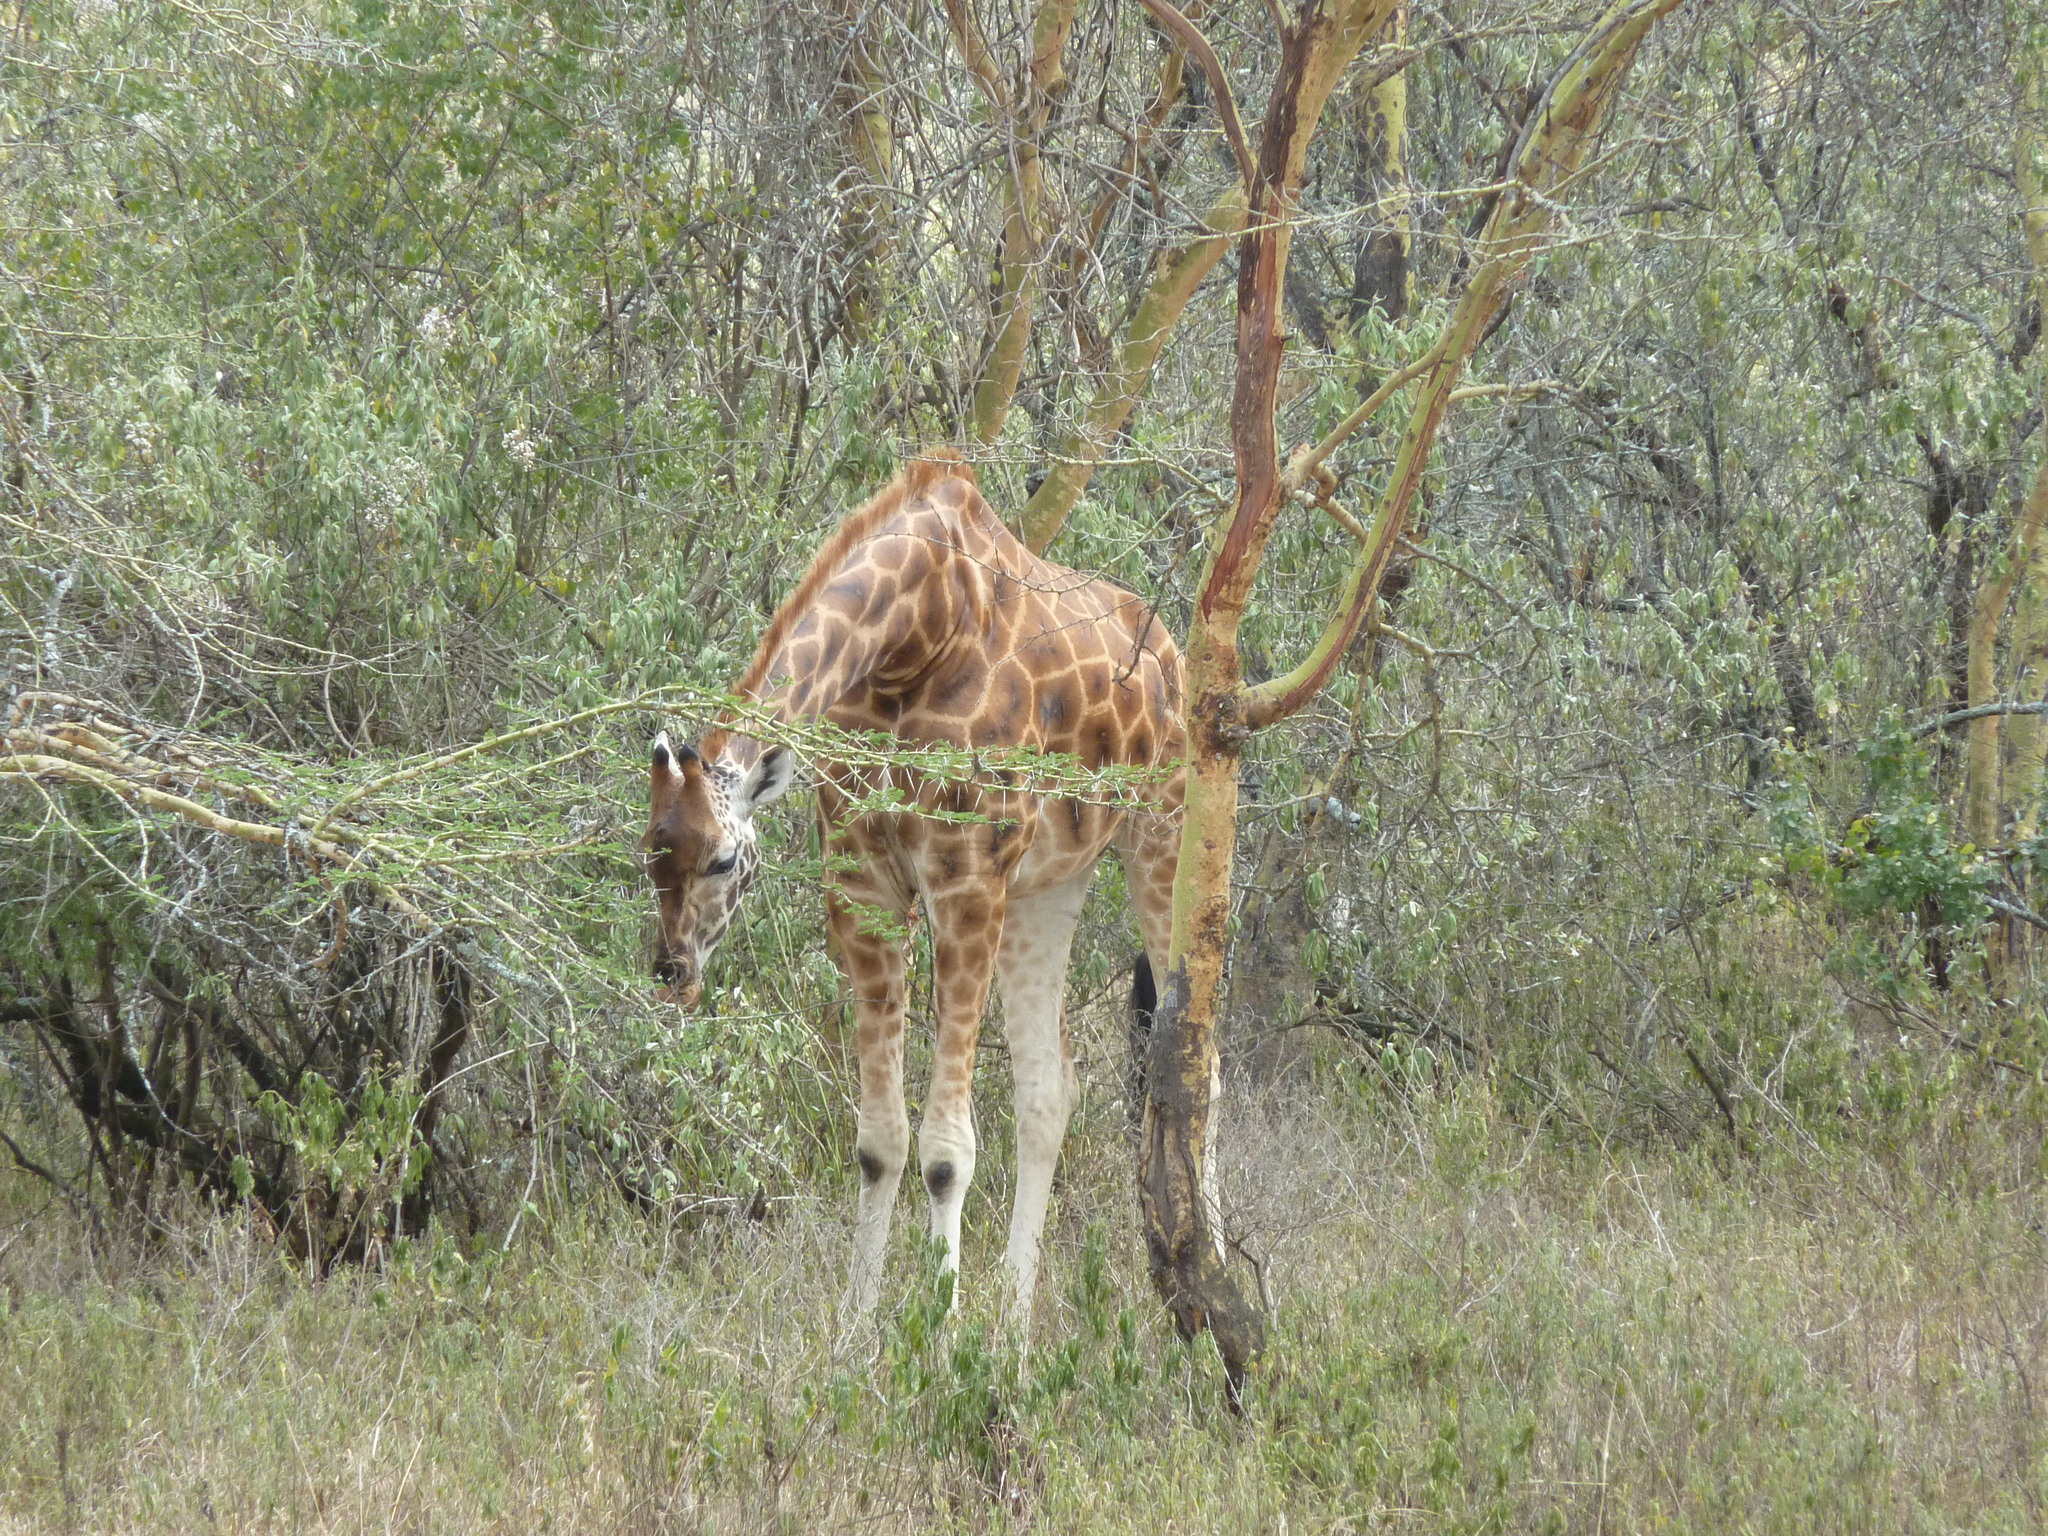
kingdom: Animalia
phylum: Chordata
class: Mammalia
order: Artiodactyla
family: Giraffidae
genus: Giraffa
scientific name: Giraffa camelopardalis
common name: Giraffe
